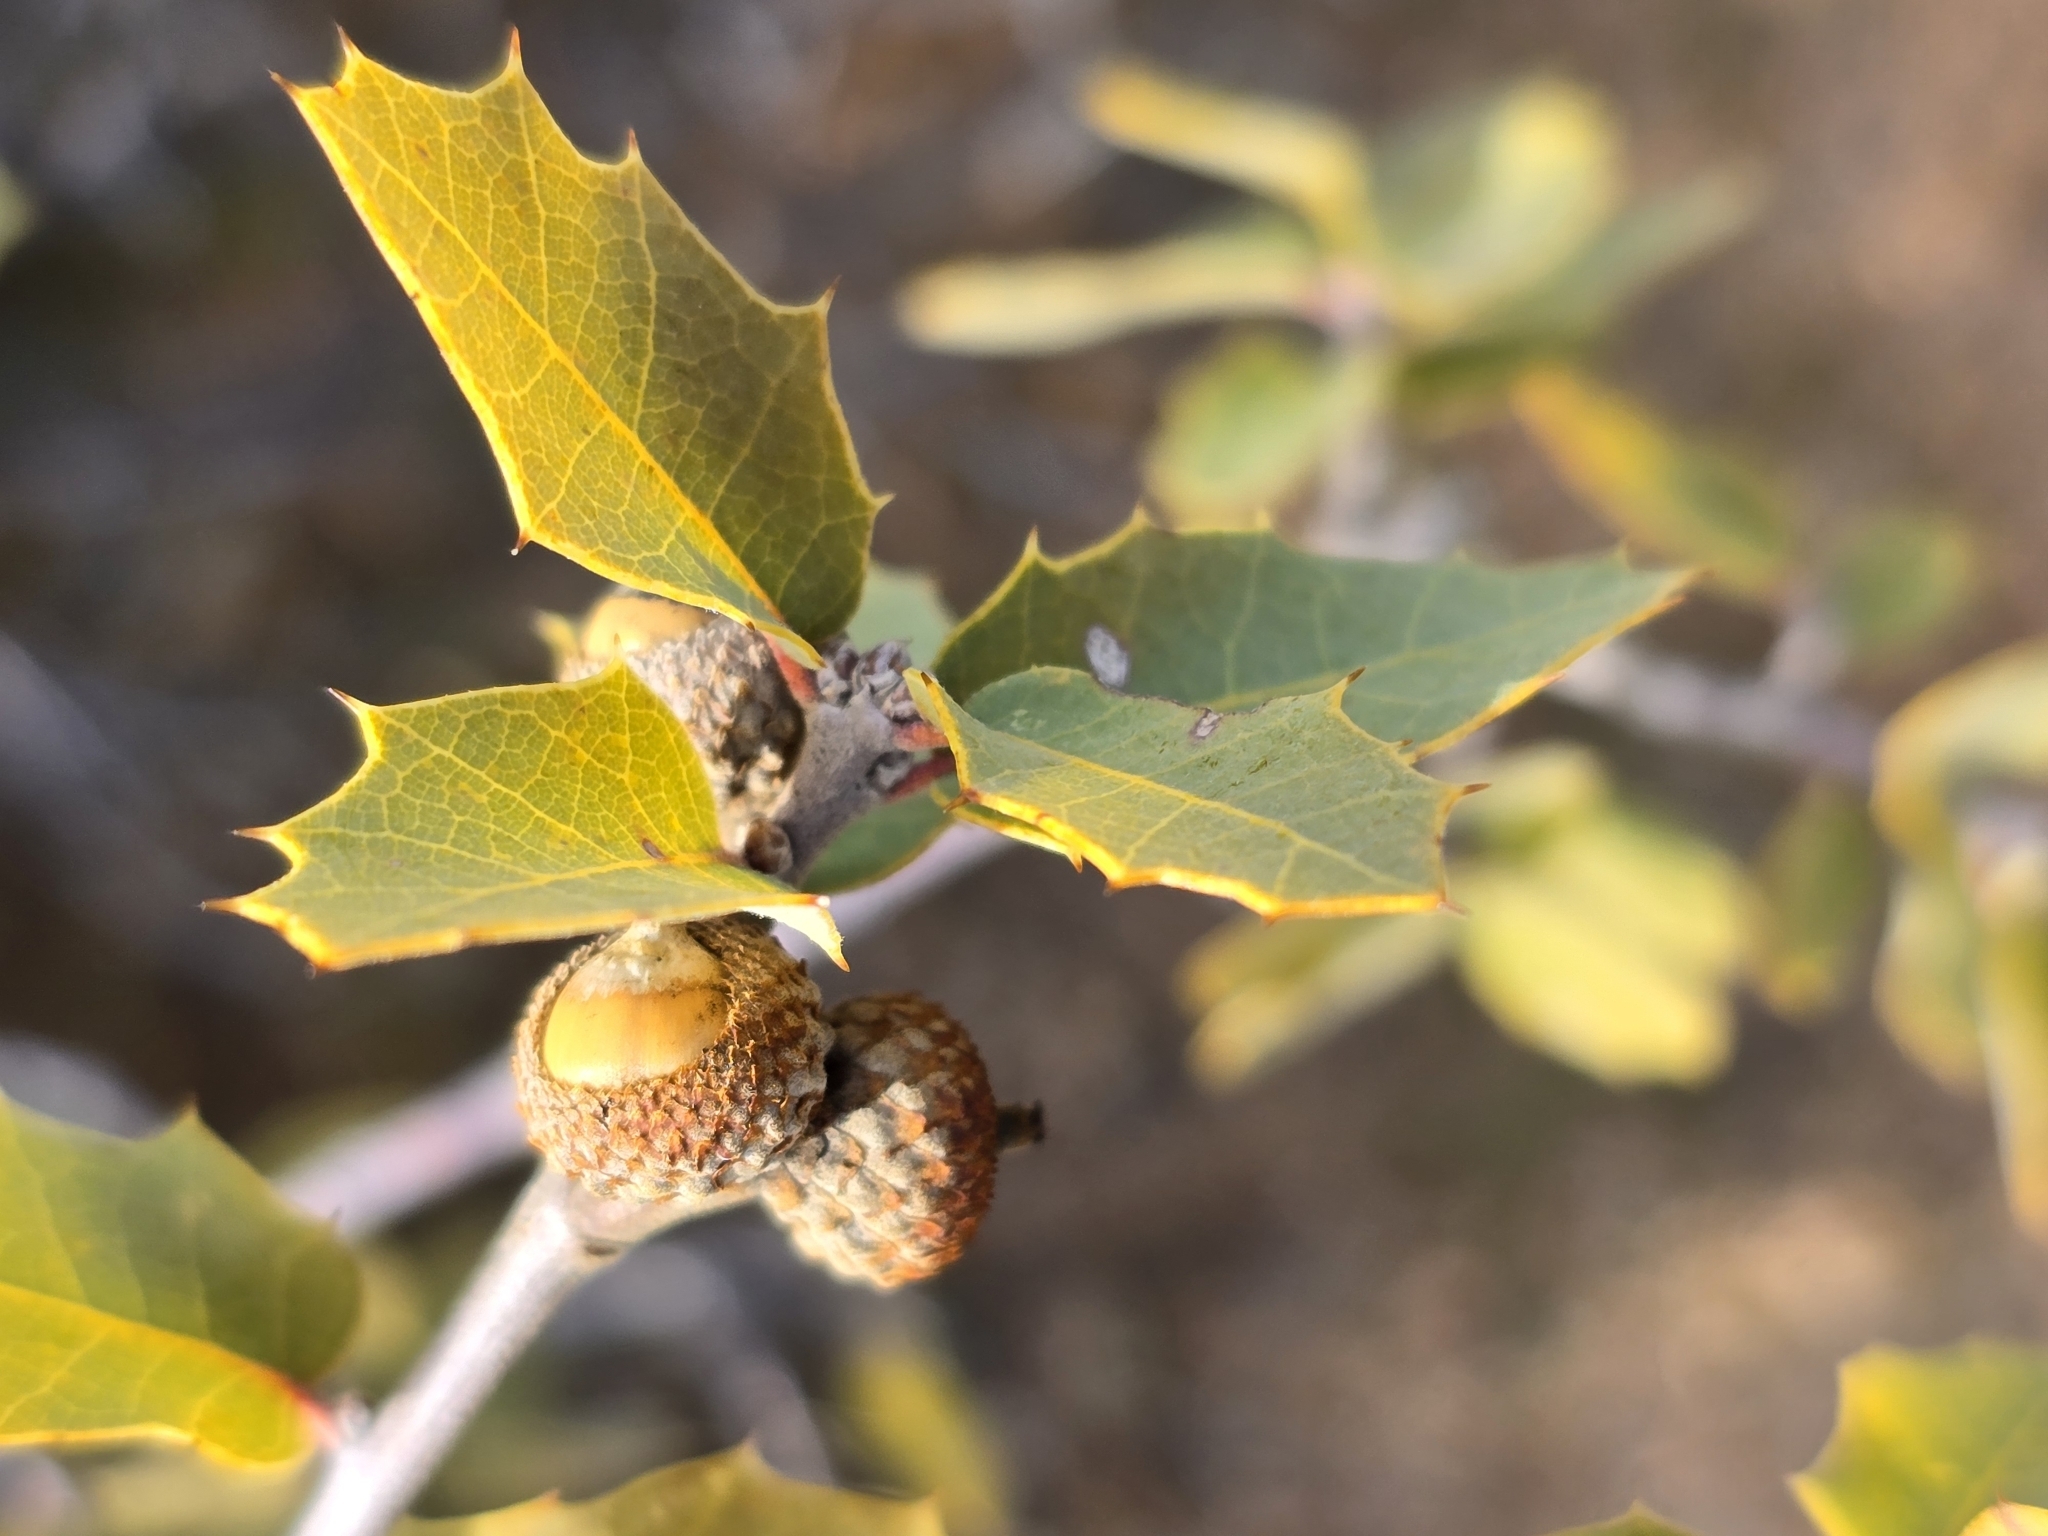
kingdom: Plantae
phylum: Tracheophyta
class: Magnoliopsida
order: Fagales
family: Fagaceae
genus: Quercus
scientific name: Quercus turbinella
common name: Sonoran scrub oak
